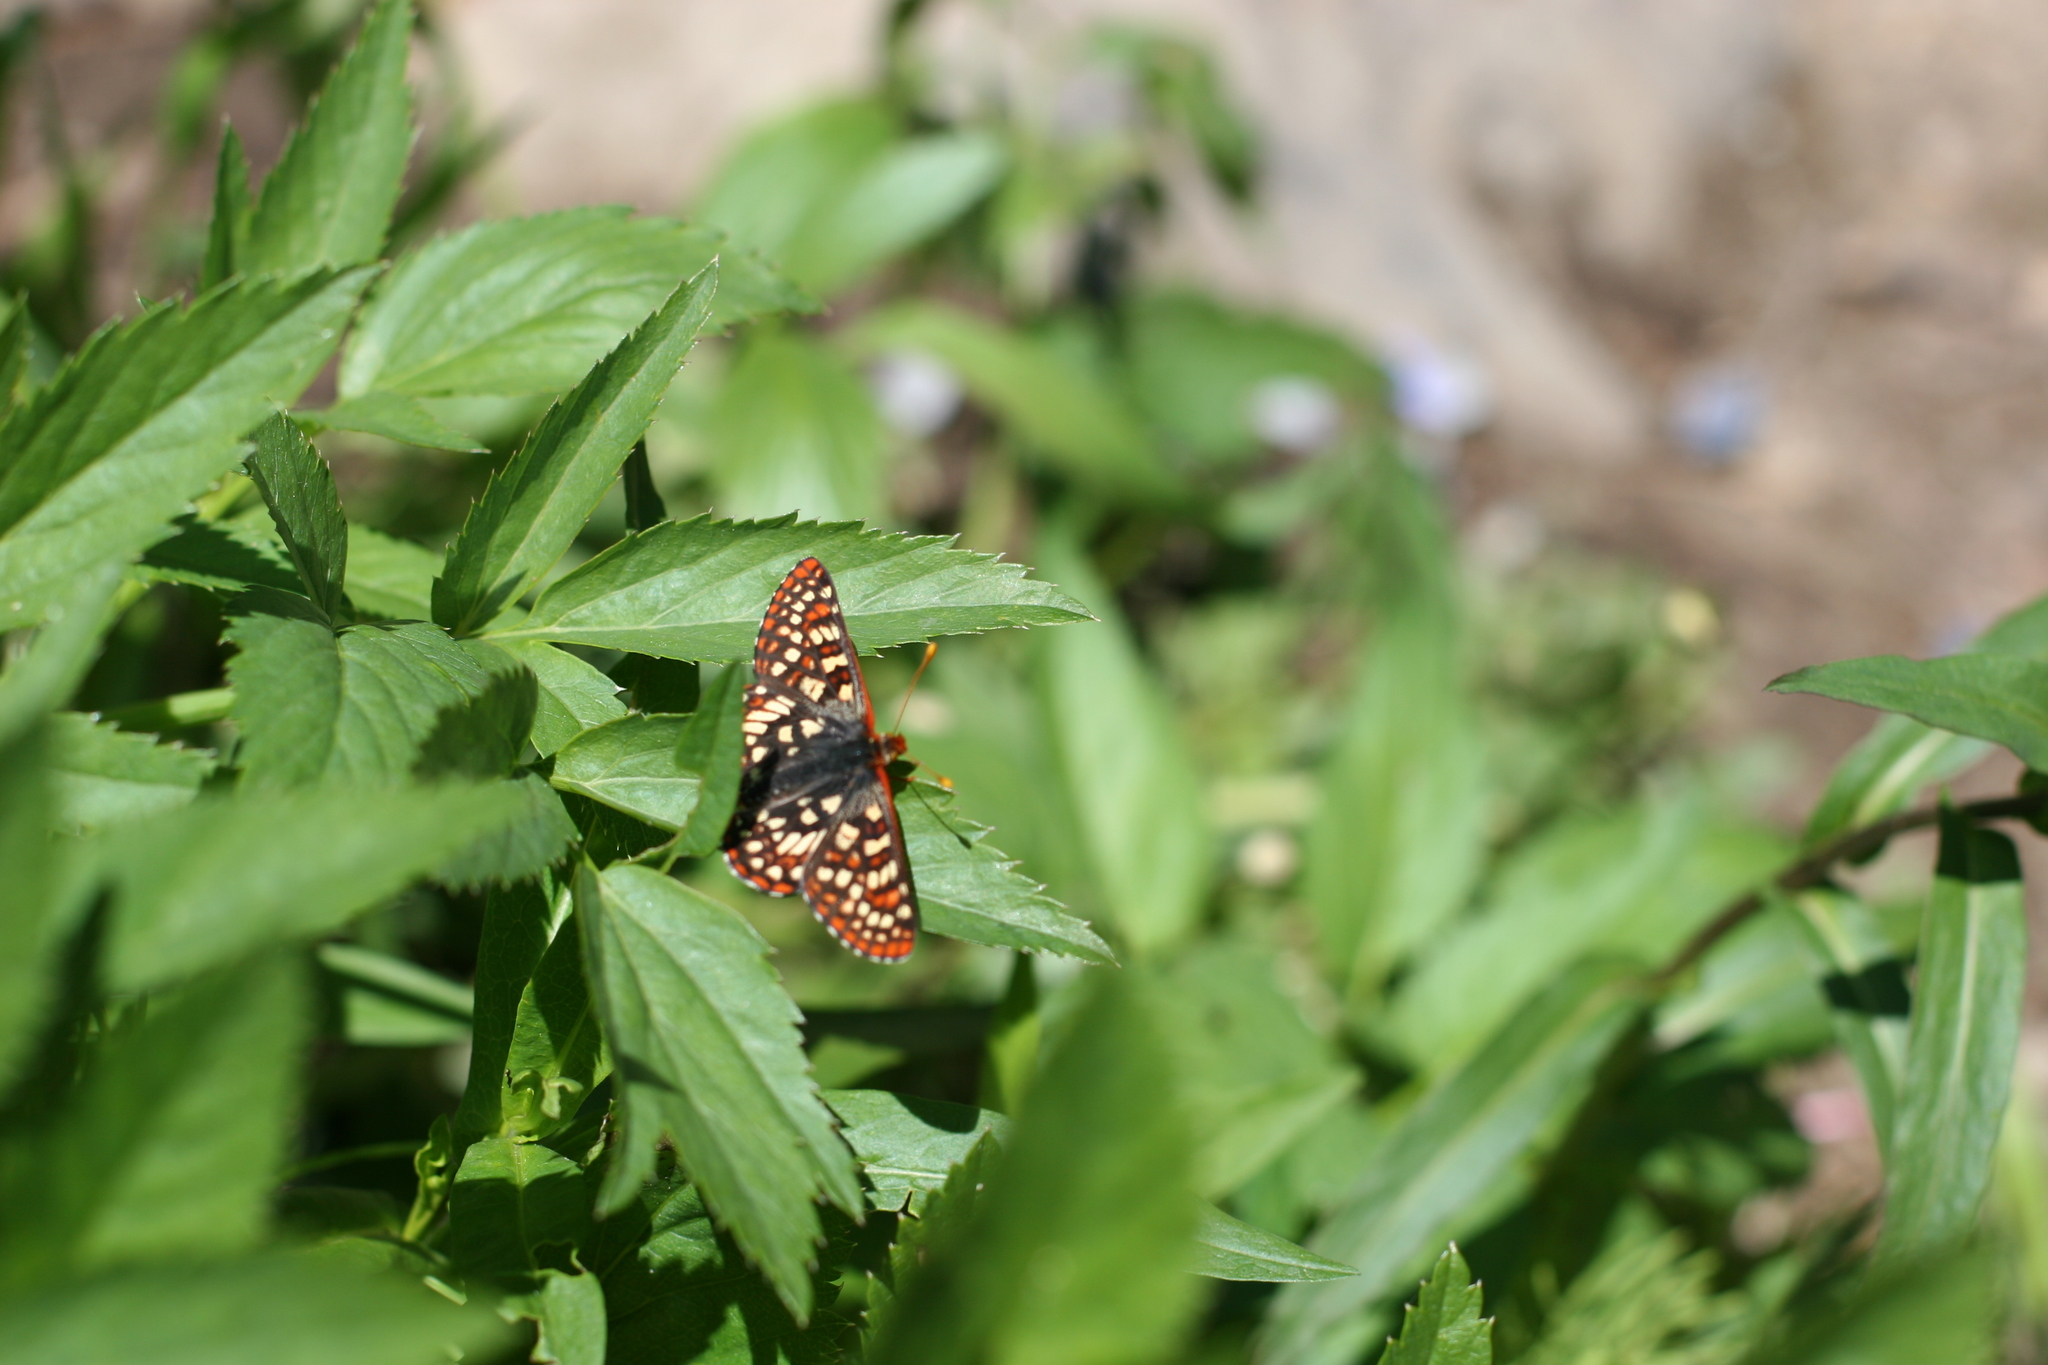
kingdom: Animalia
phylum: Arthropoda
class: Insecta
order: Lepidoptera
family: Nymphalidae
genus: Occidryas
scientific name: Occidryas colon
